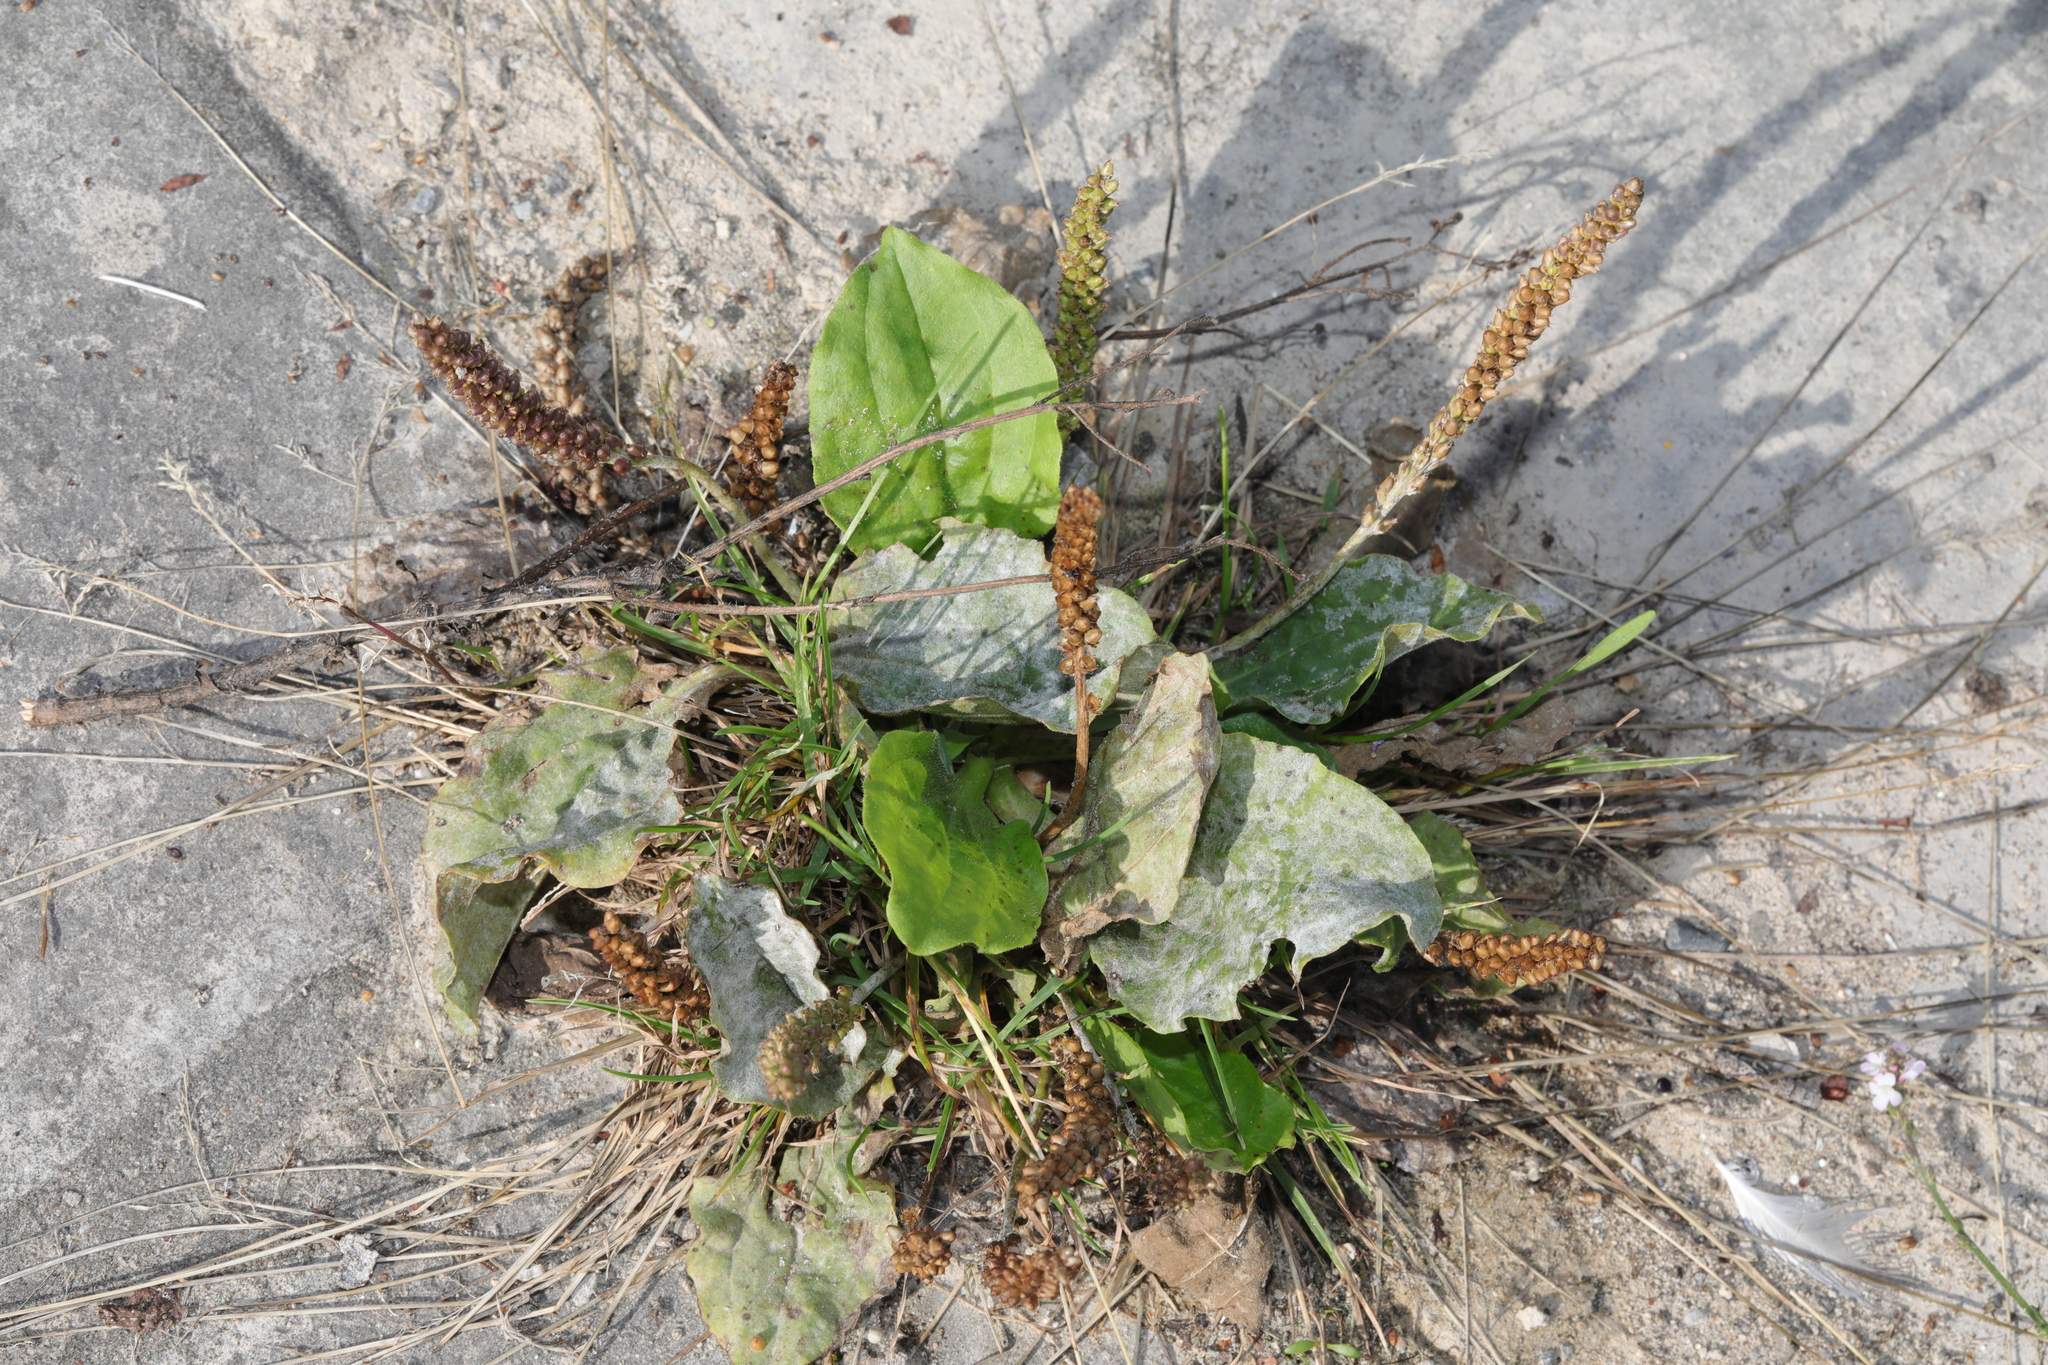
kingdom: Plantae
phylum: Tracheophyta
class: Magnoliopsida
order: Lamiales
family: Plantaginaceae
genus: Plantago
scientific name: Plantago major
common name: Common plantain
